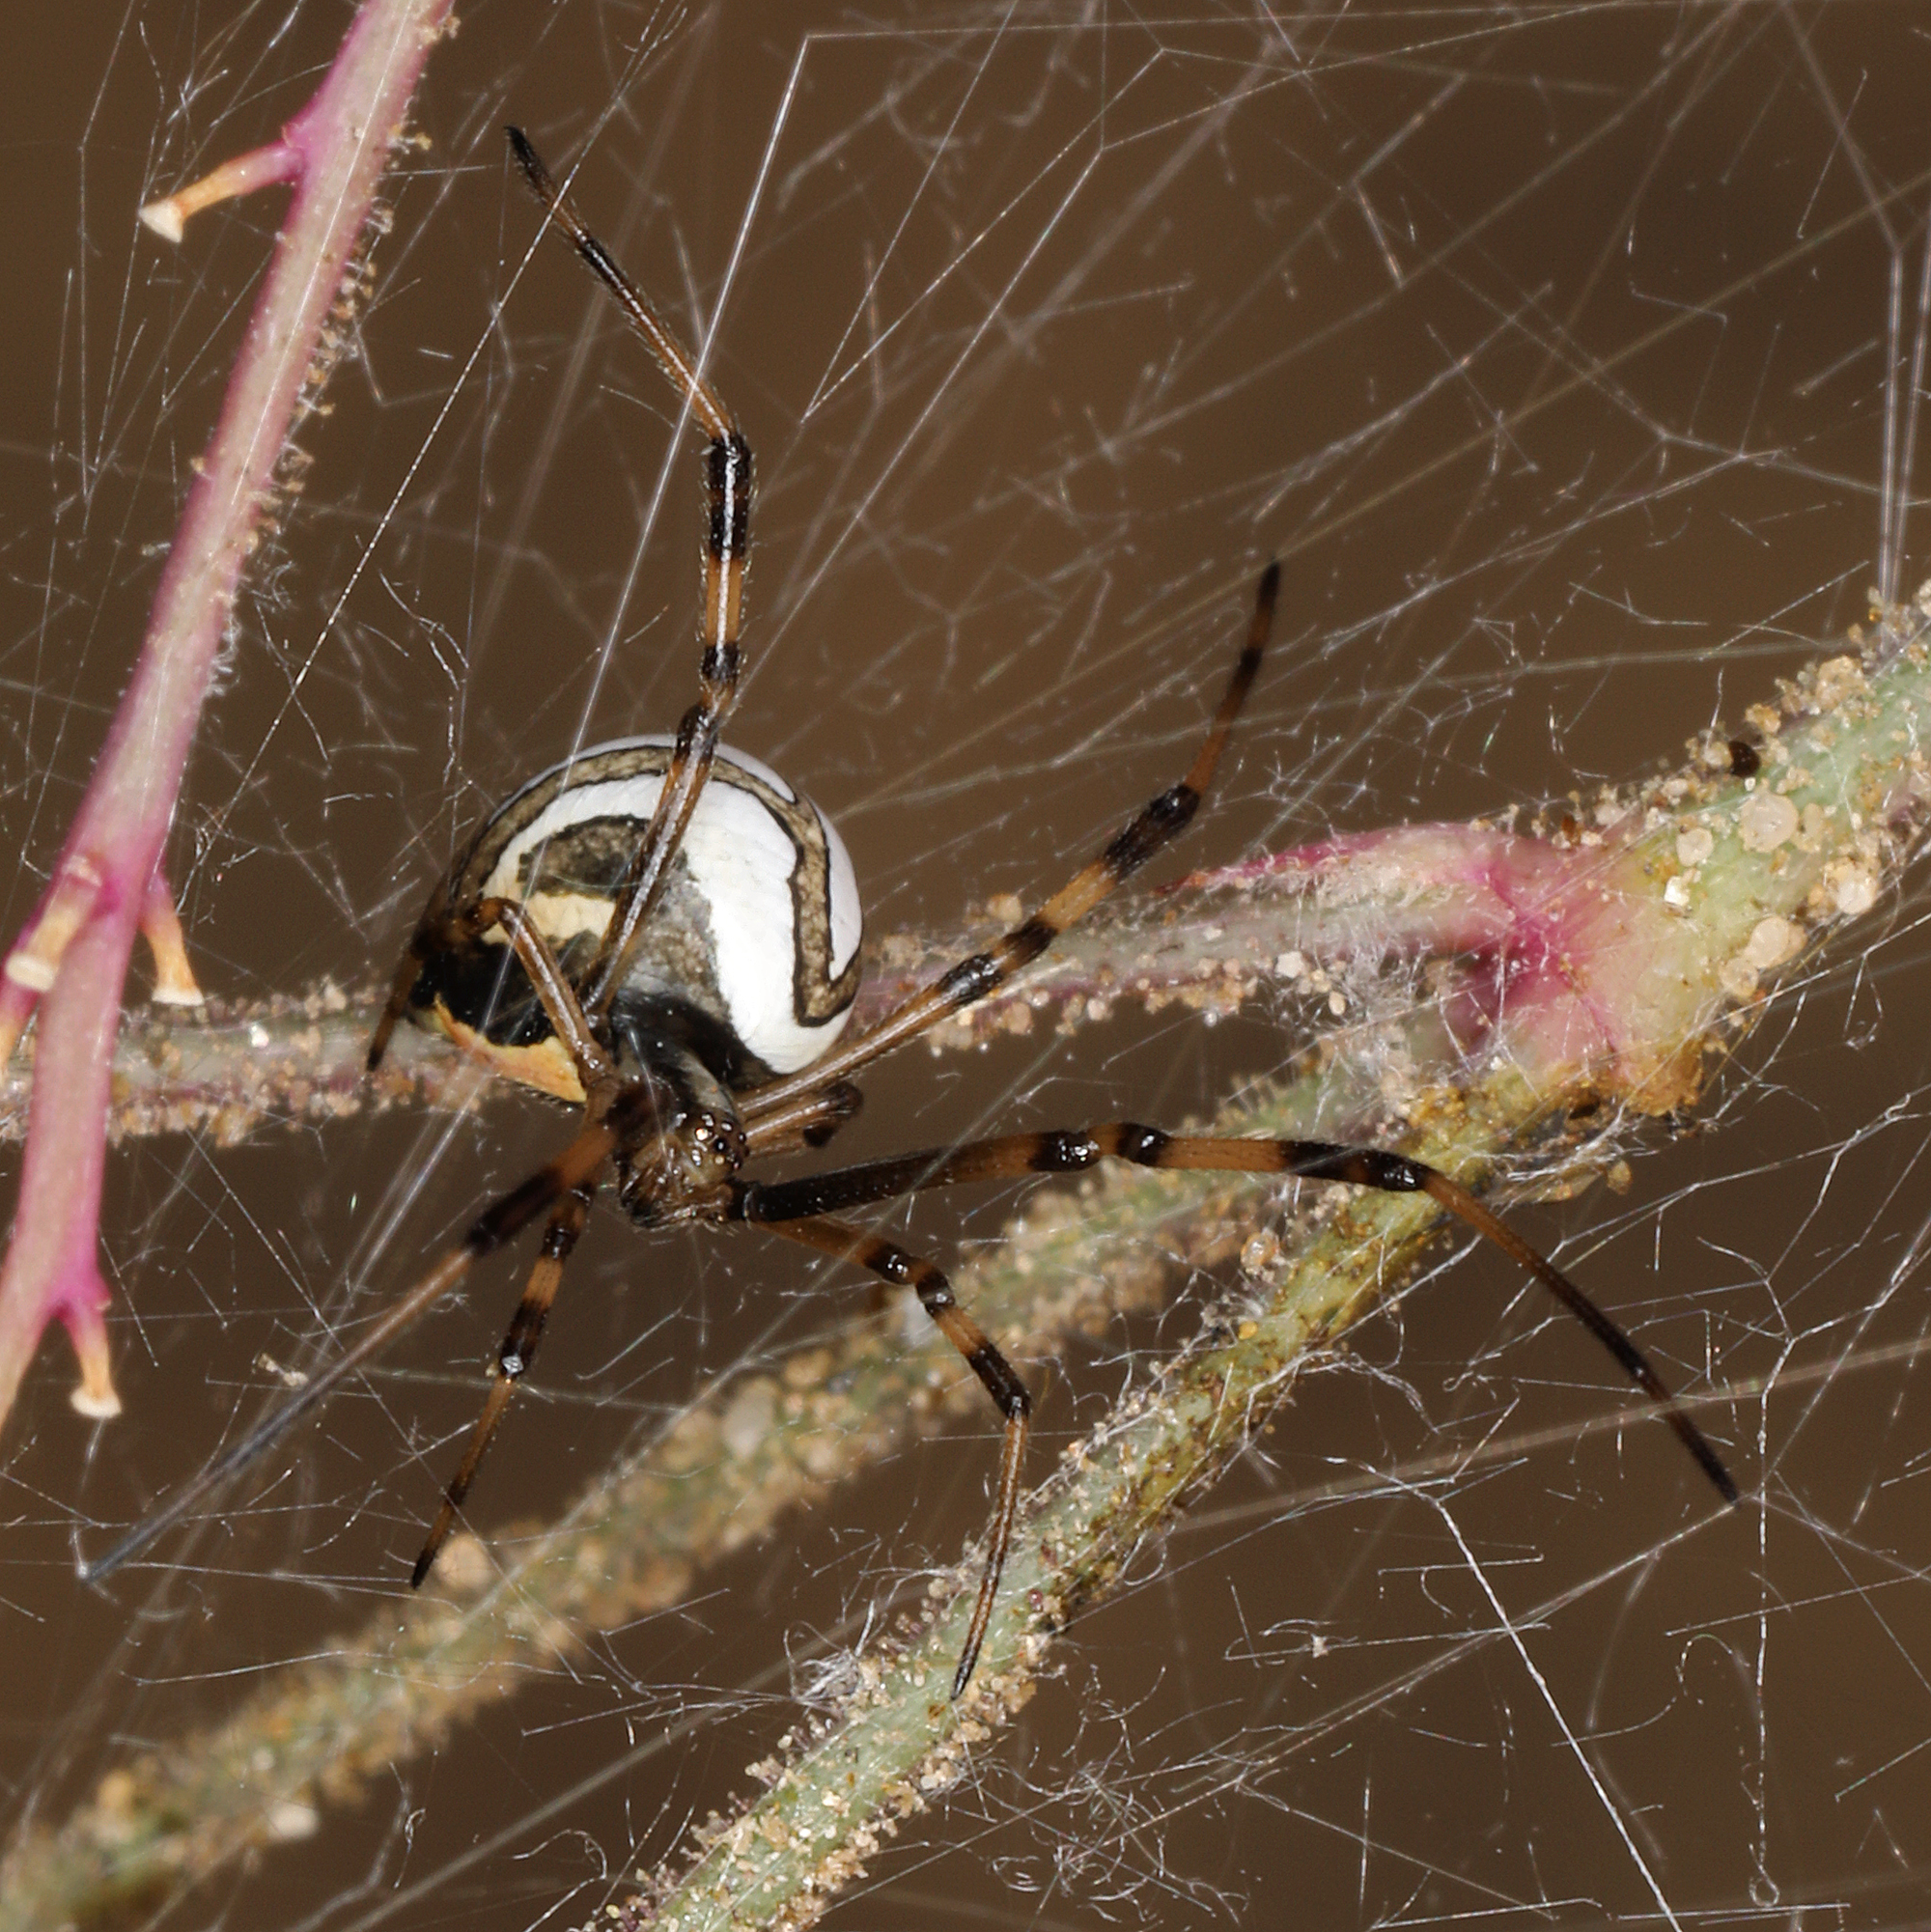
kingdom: Animalia
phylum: Arthropoda
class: Arachnida
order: Araneae
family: Theridiidae
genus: Latrodectus
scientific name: Latrodectus hesperus
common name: Western black widow
